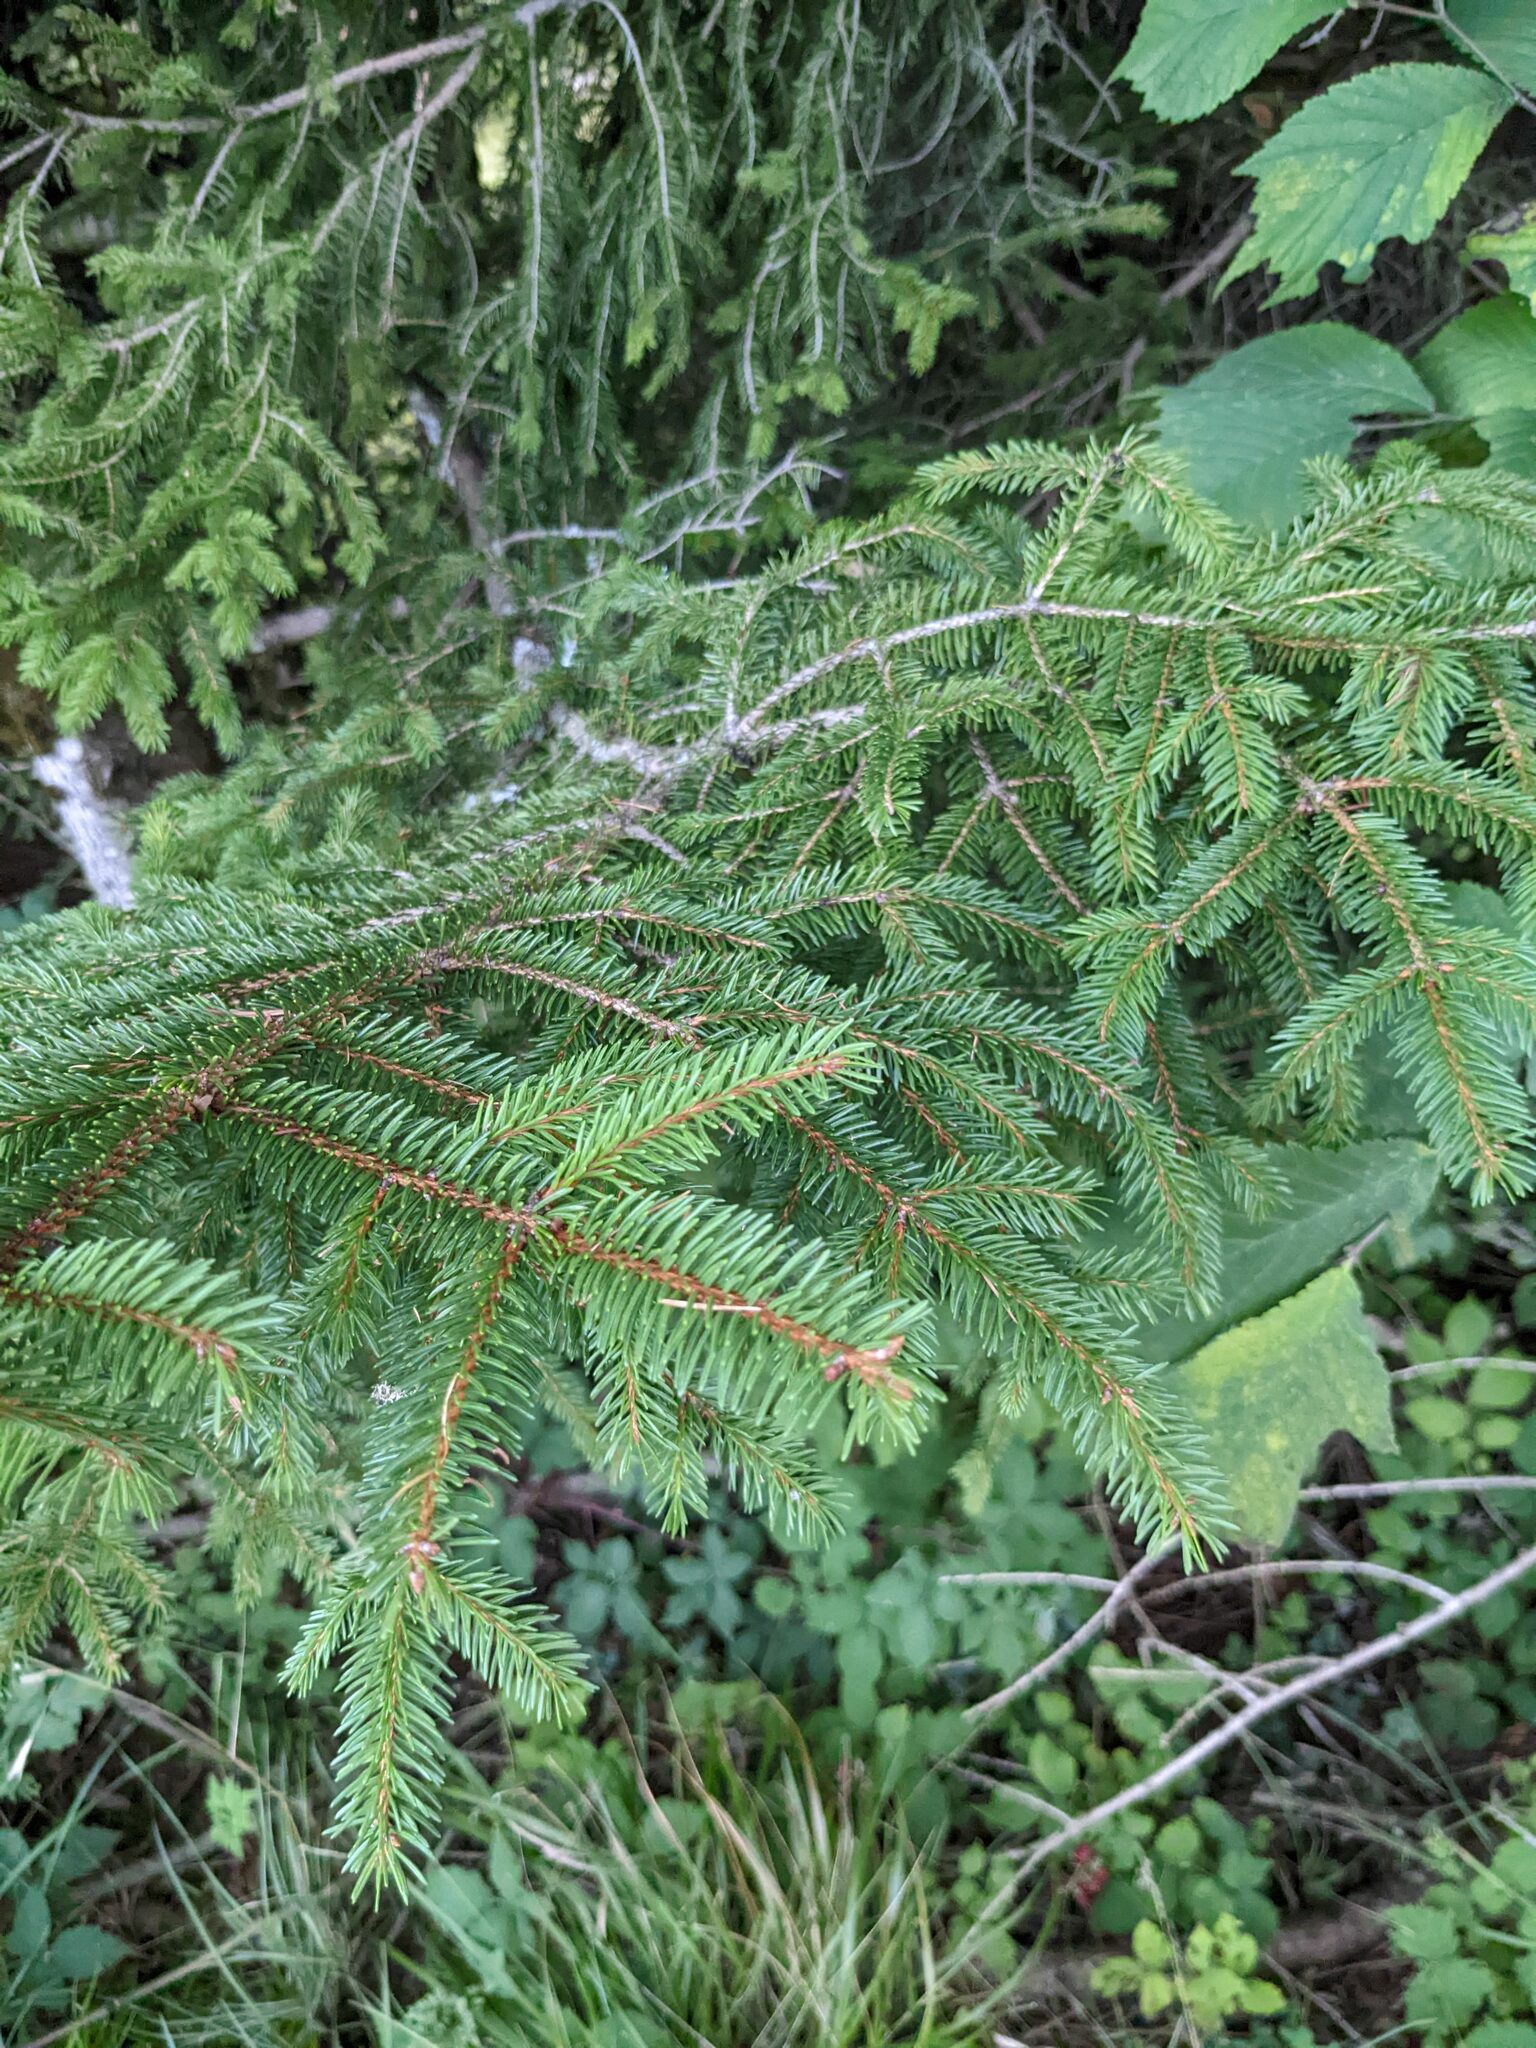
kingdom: Plantae
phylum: Tracheophyta
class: Pinopsida
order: Pinales
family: Pinaceae
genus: Picea
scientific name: Picea abies
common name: Norway spruce
